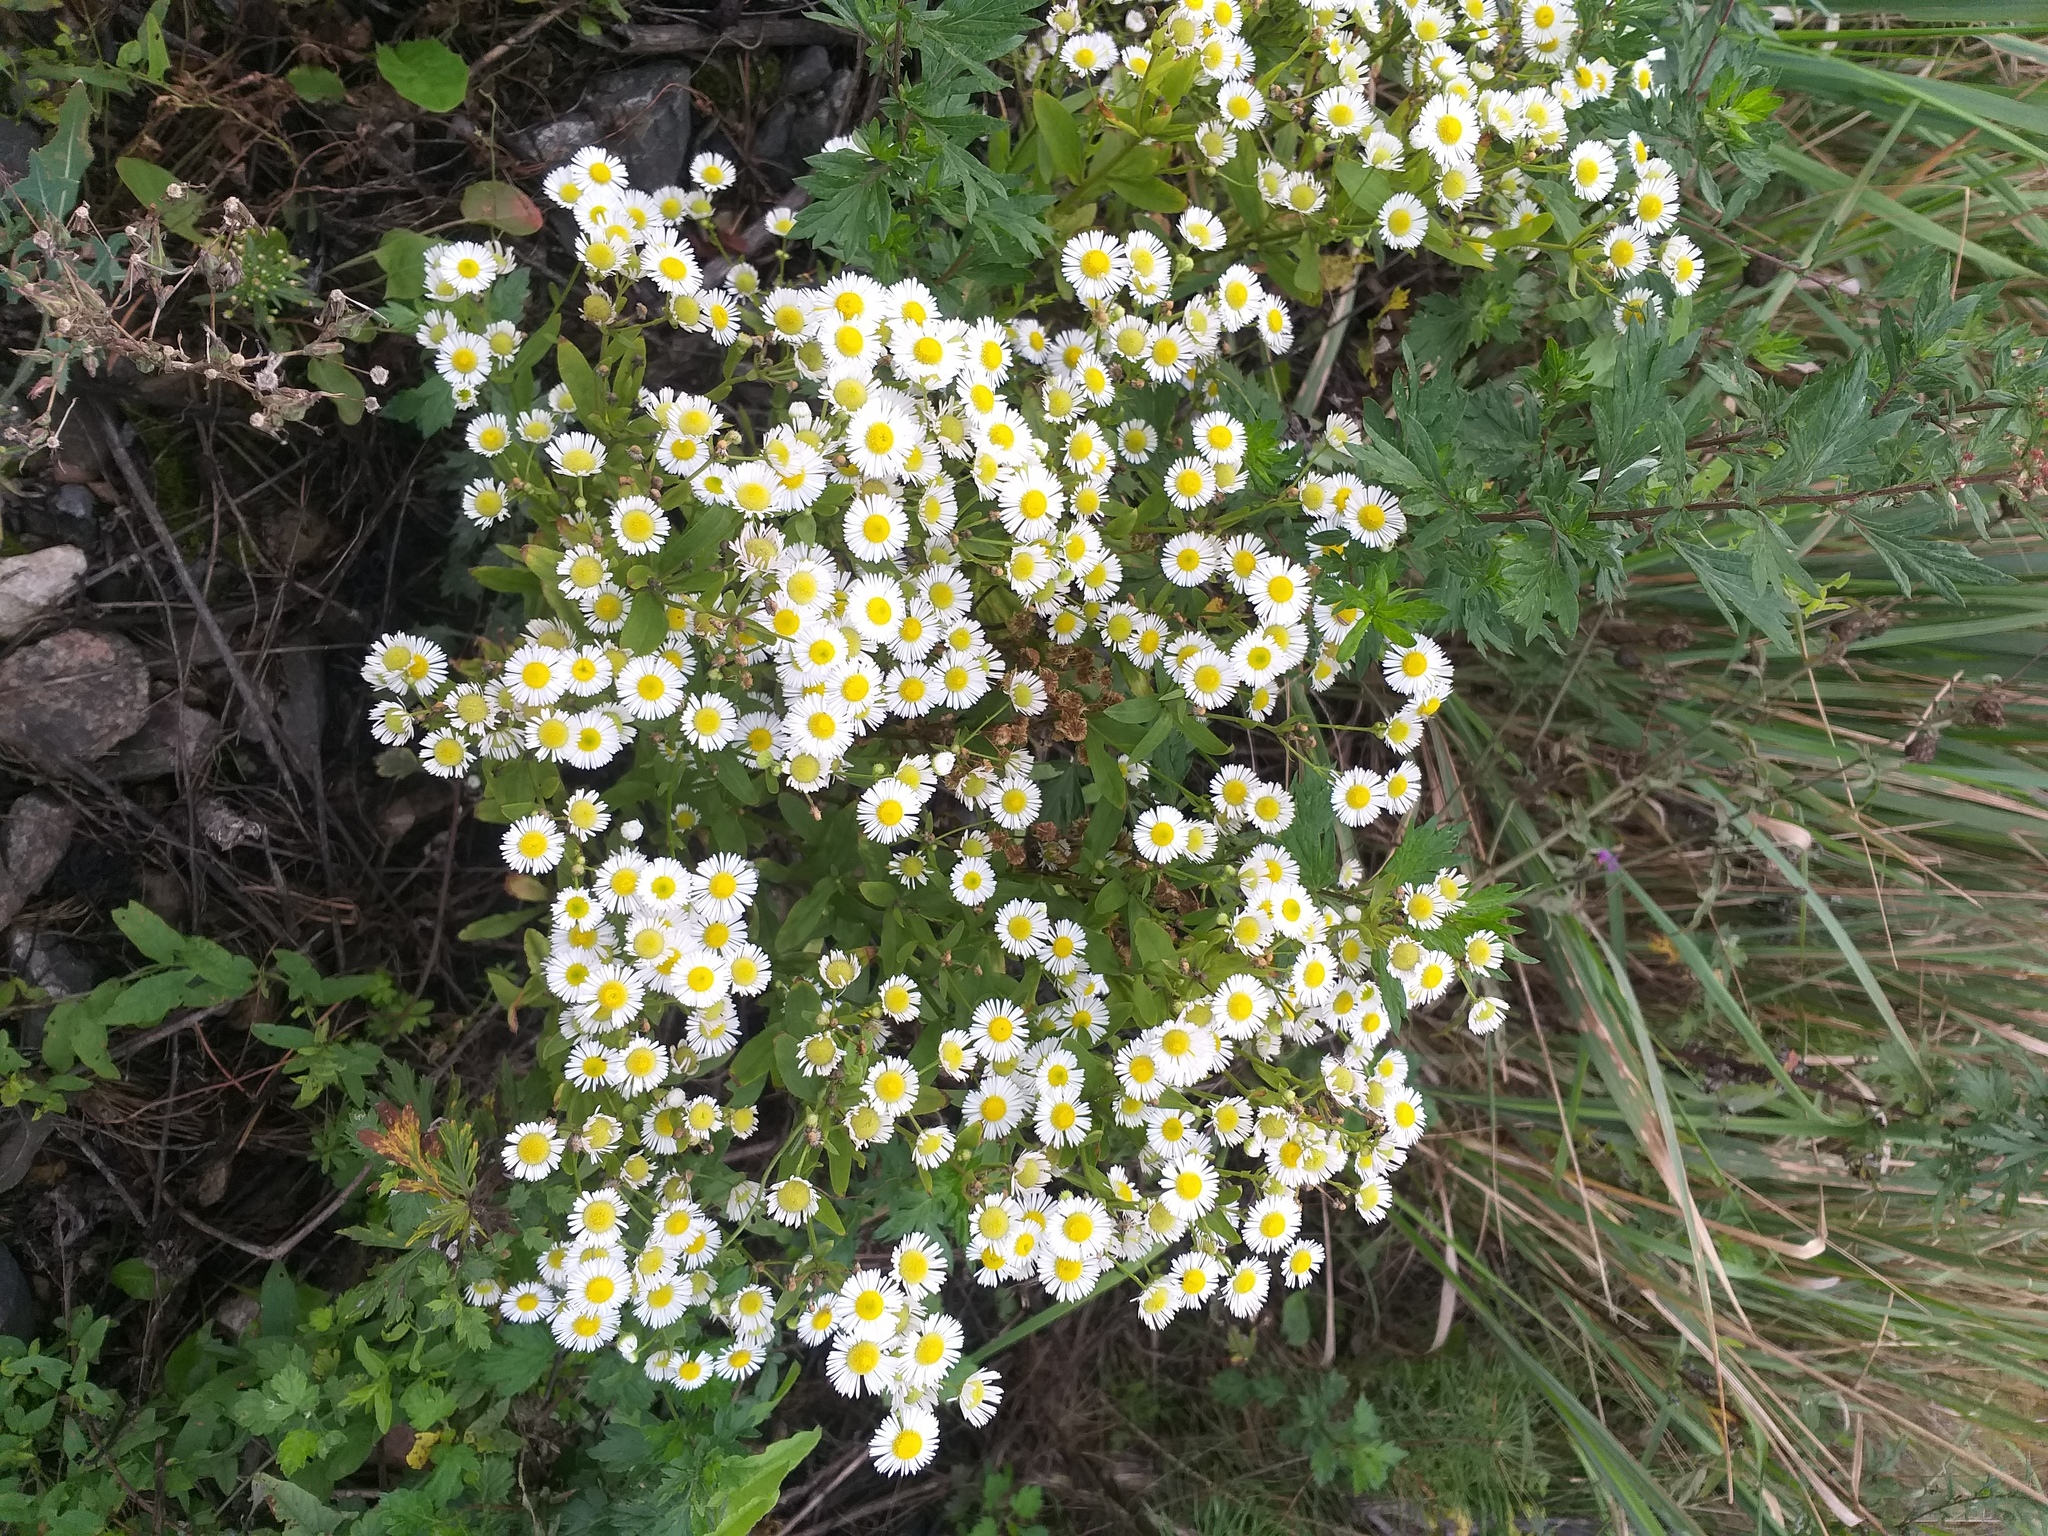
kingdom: Plantae
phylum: Tracheophyta
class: Magnoliopsida
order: Asterales
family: Asteraceae
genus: Erigeron
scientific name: Erigeron annuus
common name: Tall fleabane
